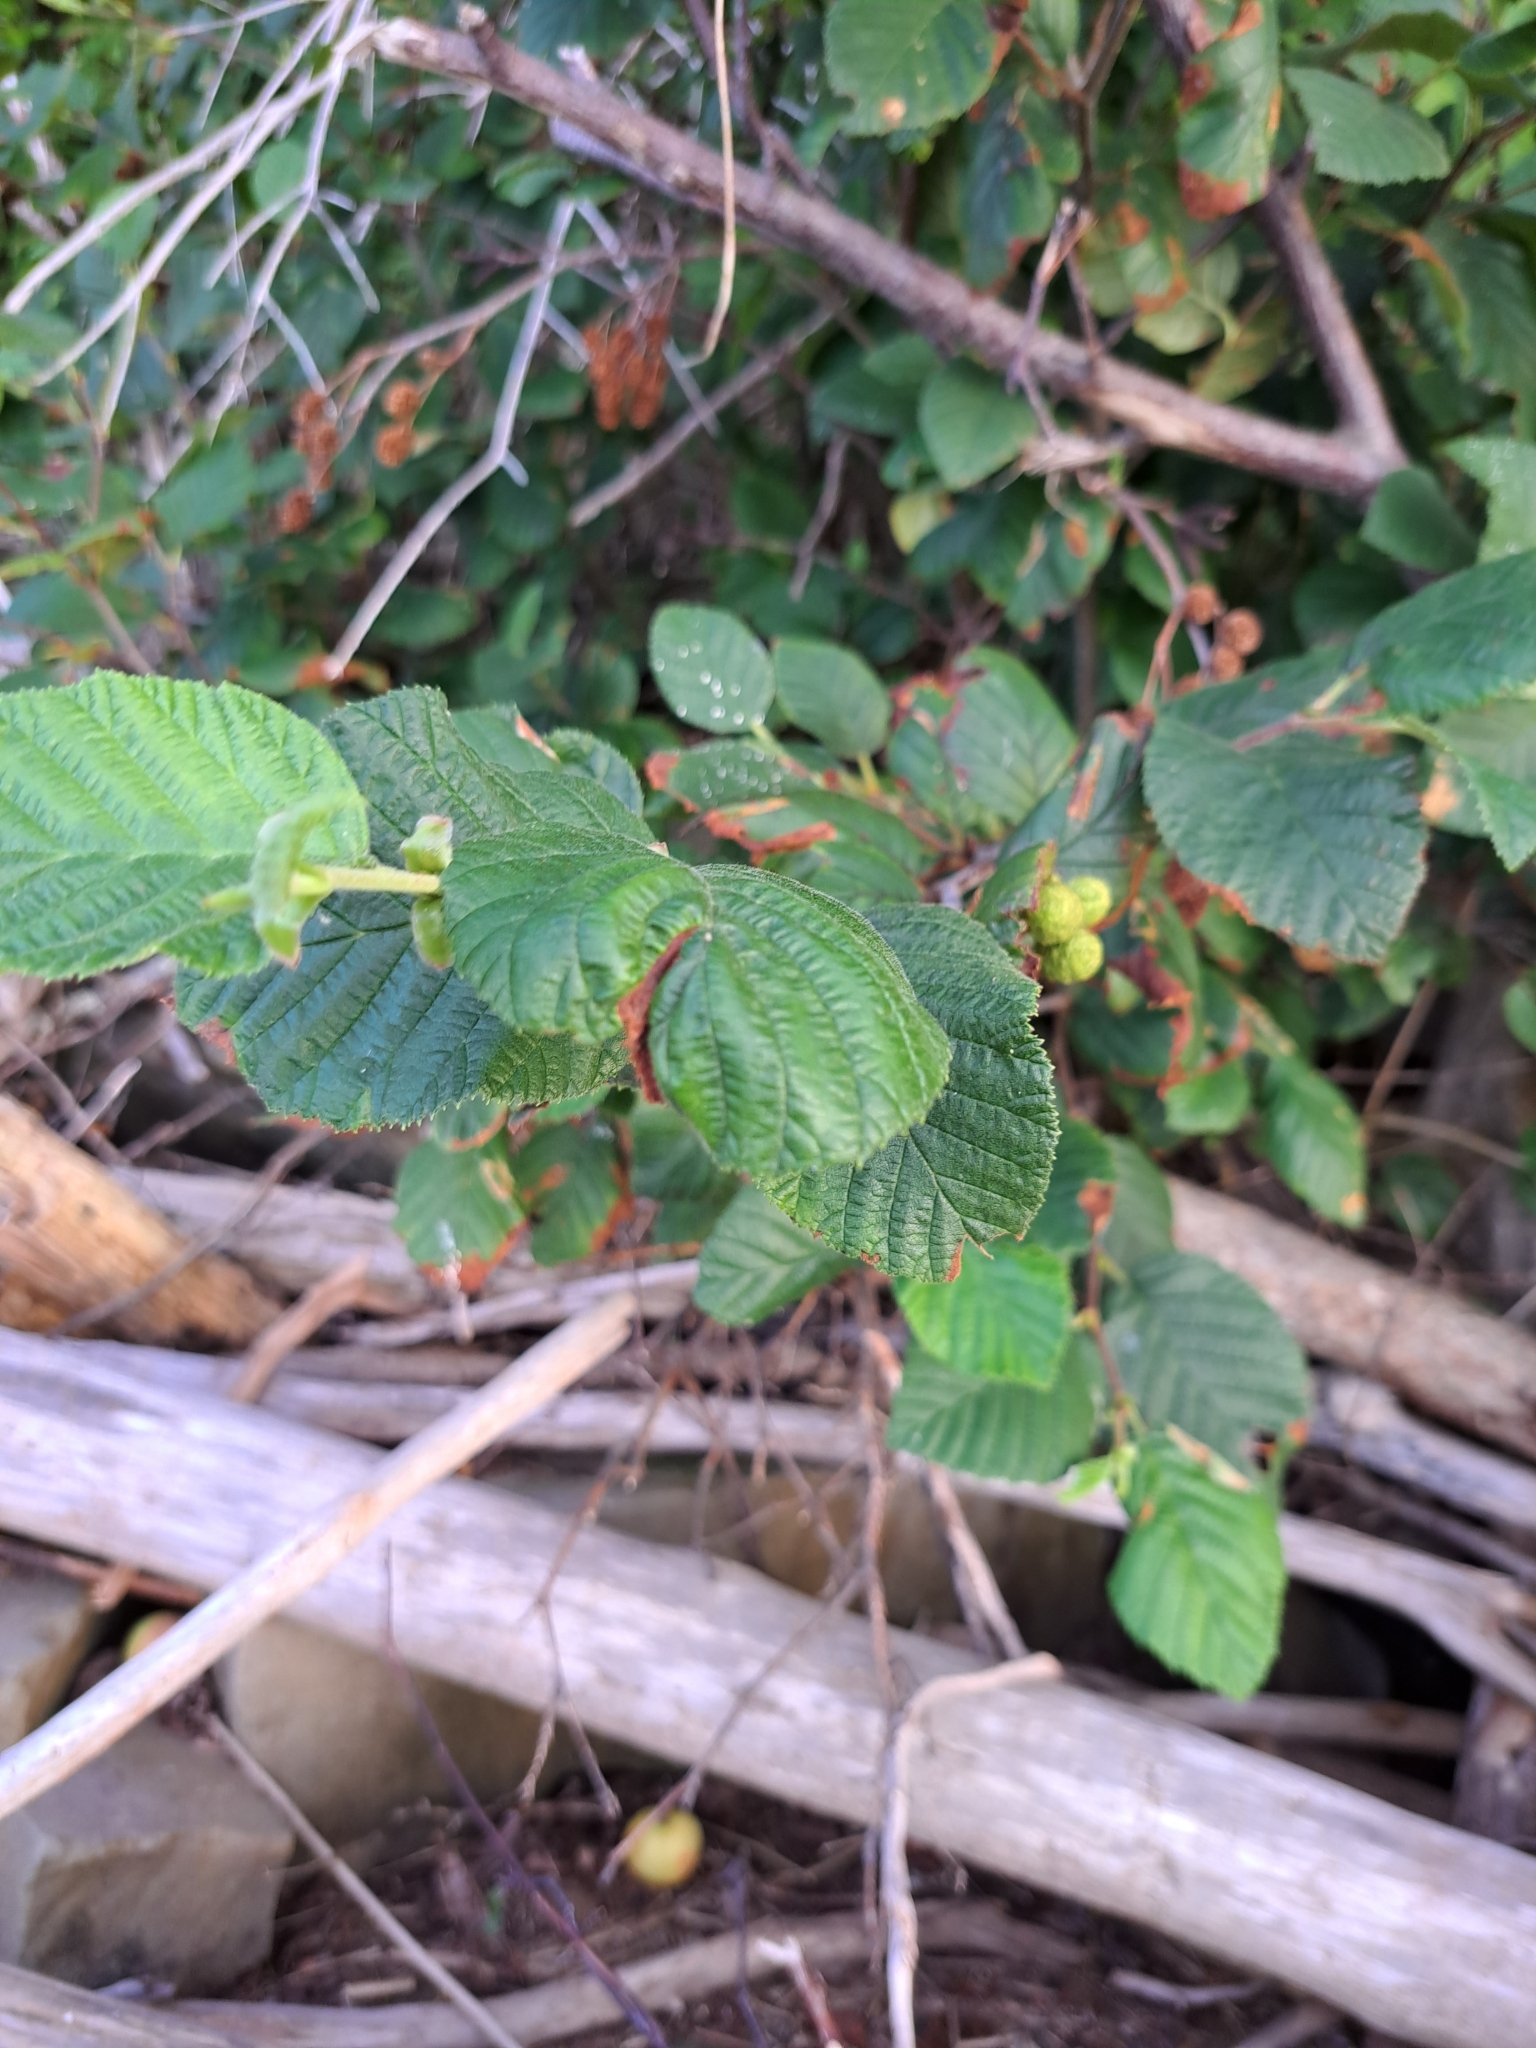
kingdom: Plantae
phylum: Tracheophyta
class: Magnoliopsida
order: Fagales
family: Betulaceae
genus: Alnus
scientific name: Alnus alnobetula
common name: Green alder
